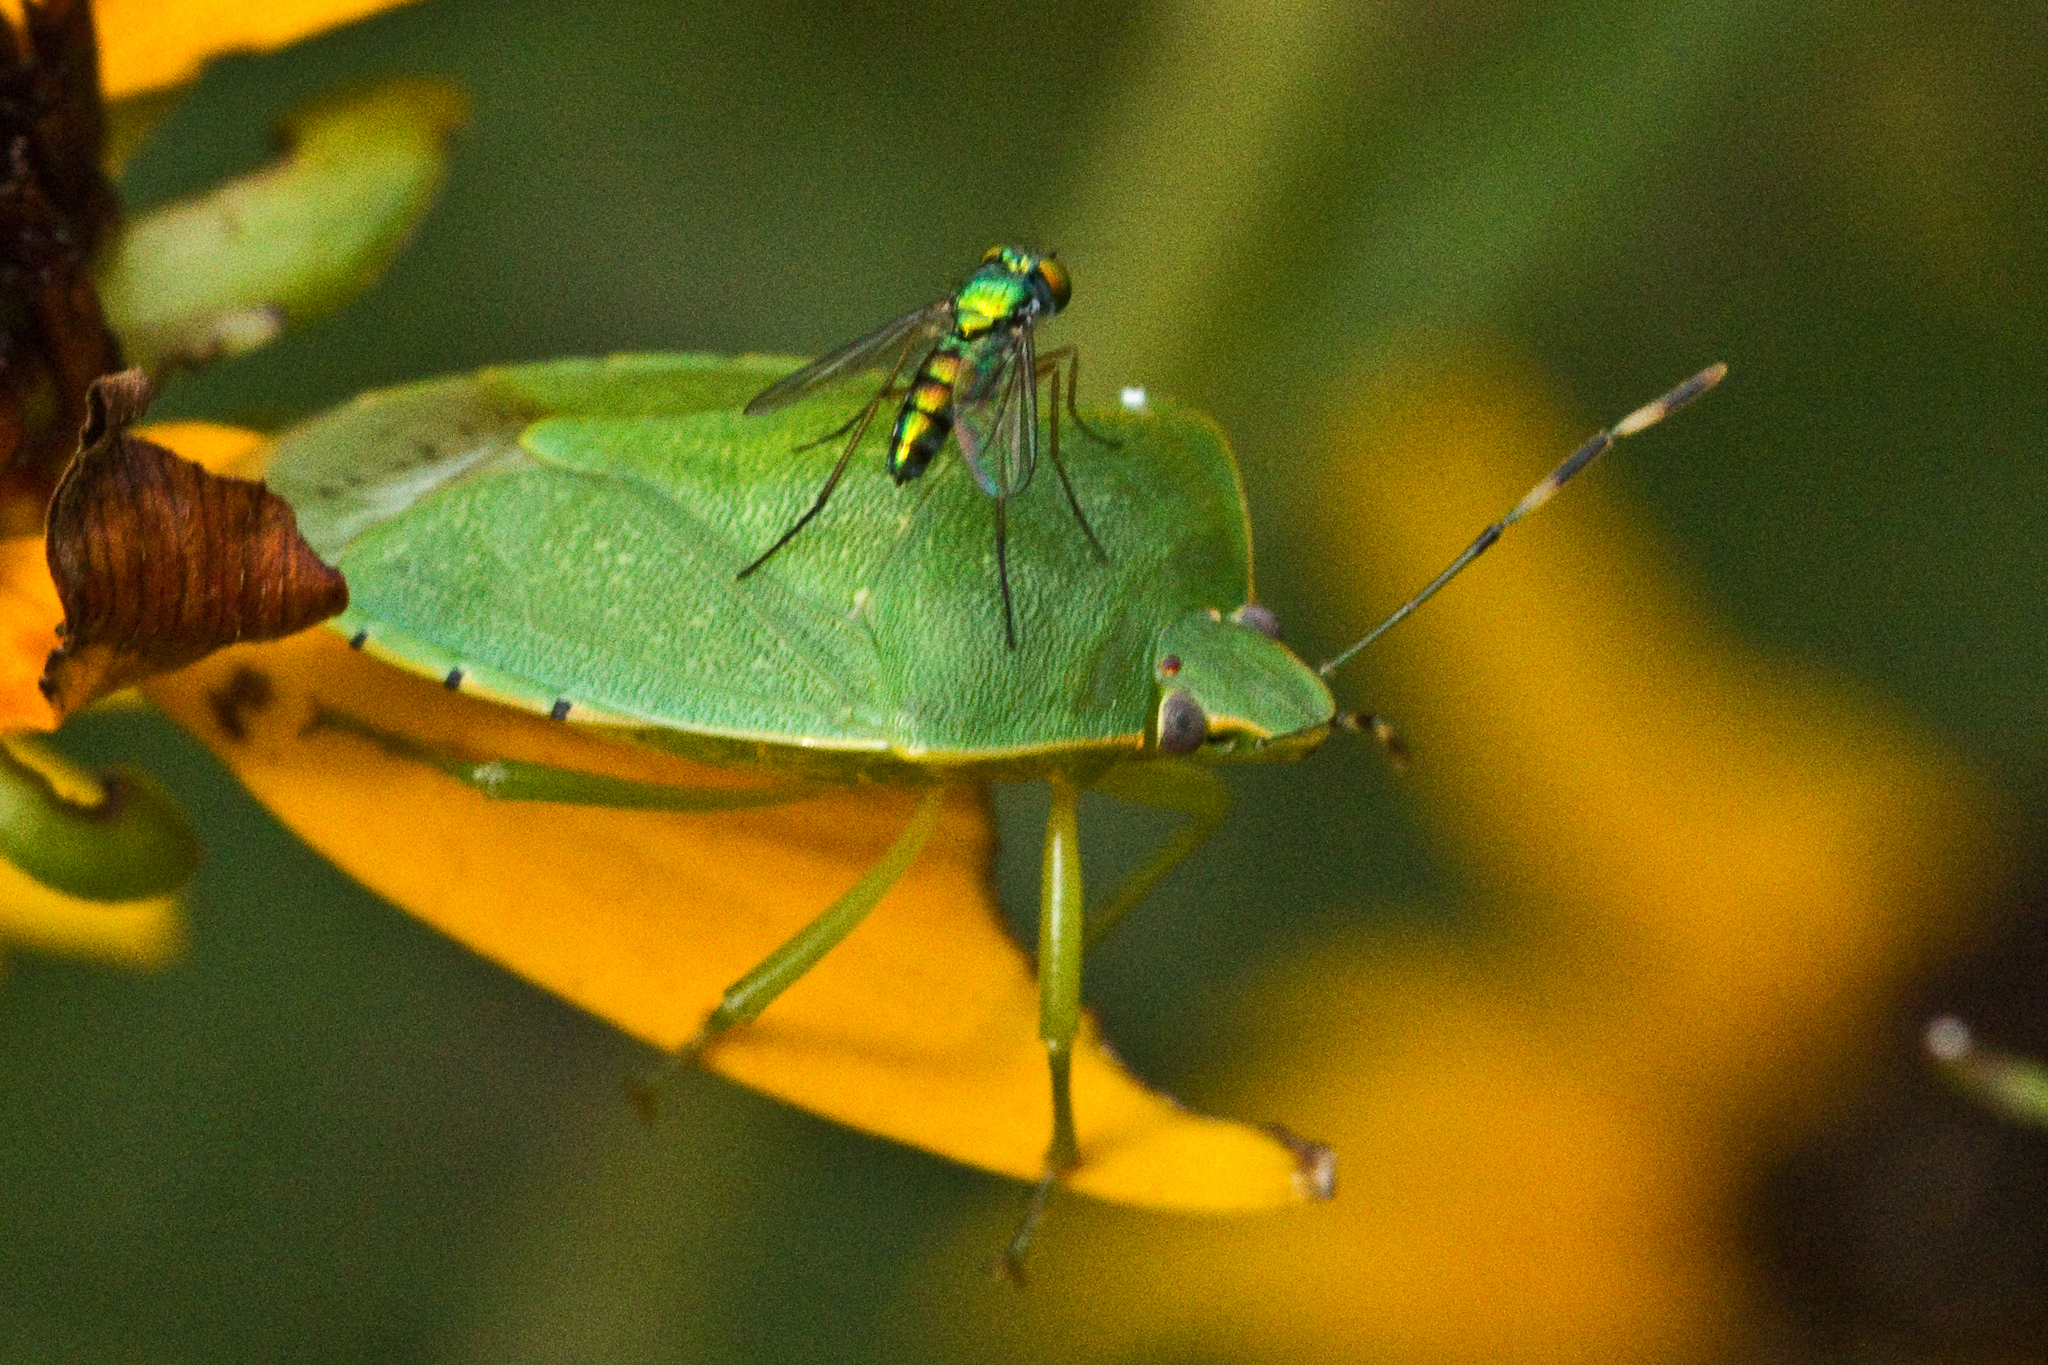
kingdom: Animalia
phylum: Arthropoda
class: Insecta
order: Hemiptera
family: Pentatomidae
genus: Chinavia
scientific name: Chinavia hilaris
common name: Green stink bug
